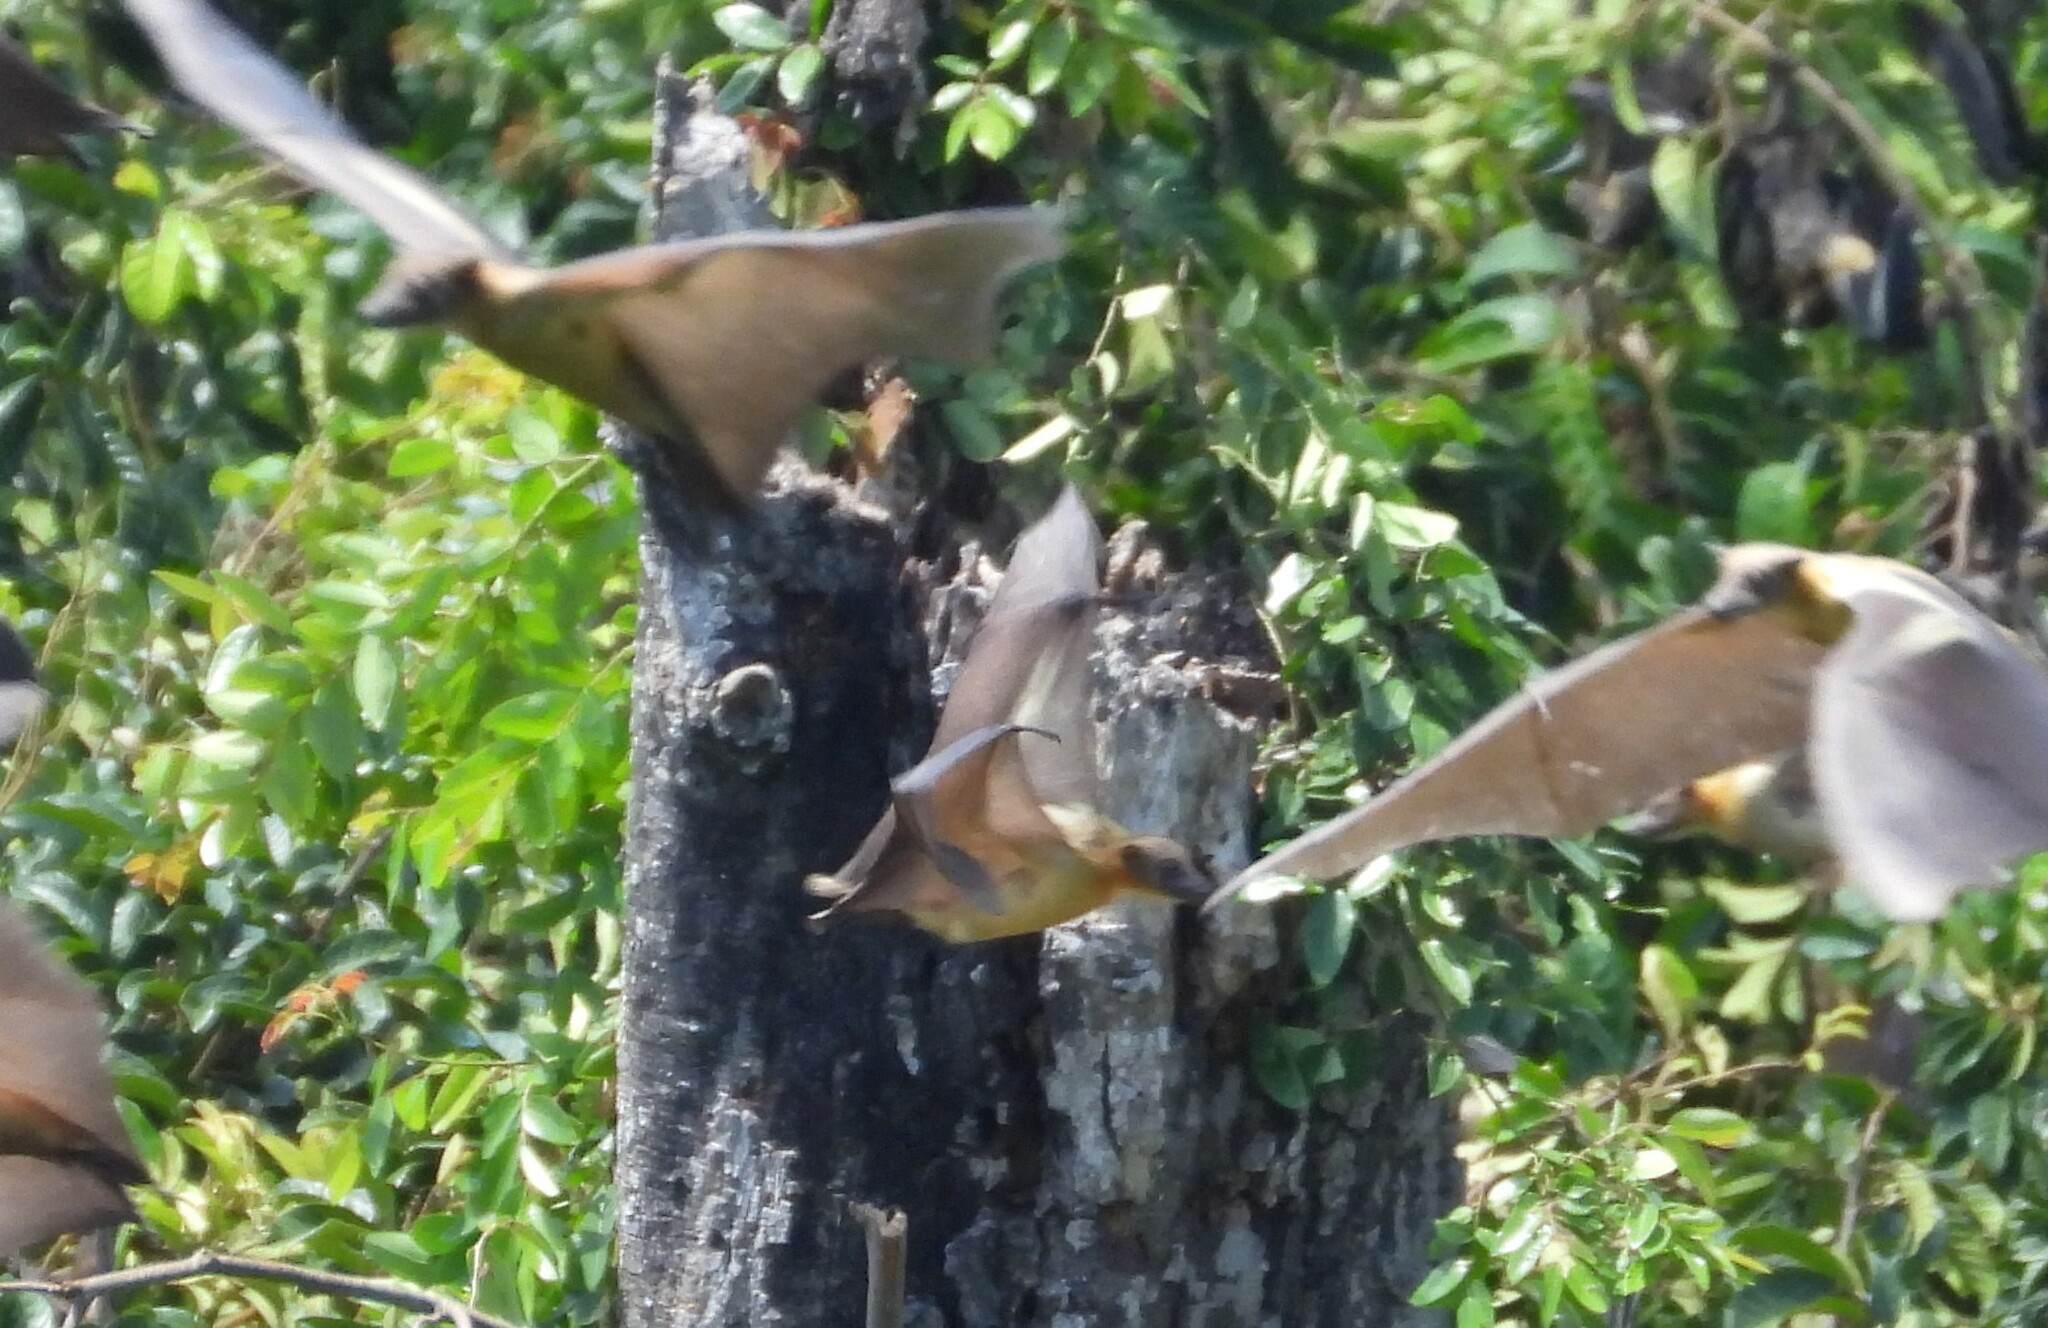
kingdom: Animalia
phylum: Chordata
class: Mammalia
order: Chiroptera
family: Pteropodidae
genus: Eidolon
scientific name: Eidolon helvum
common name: Straw-colored fruit bat
